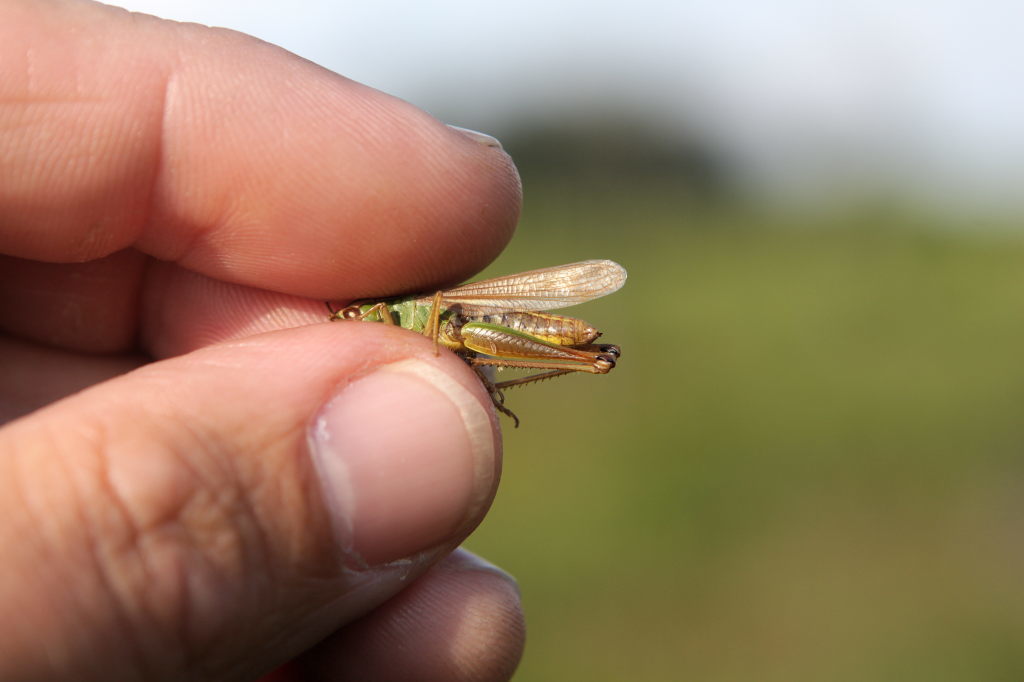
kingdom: Animalia
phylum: Arthropoda
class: Insecta
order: Orthoptera
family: Acrididae
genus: Pseudochorthippus
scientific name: Pseudochorthippus parallelus
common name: Meadow grasshopper
